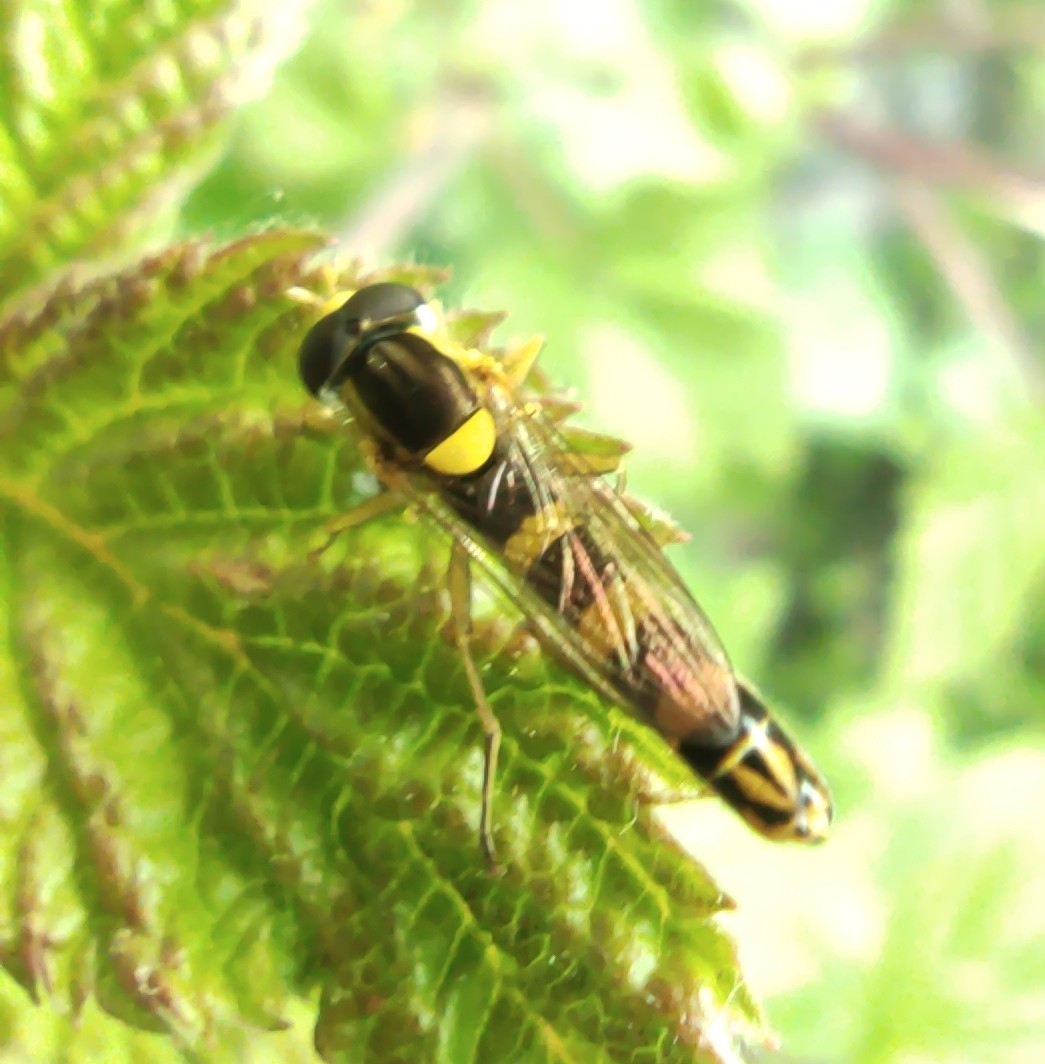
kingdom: Animalia
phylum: Arthropoda
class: Insecta
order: Diptera
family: Syrphidae
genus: Sphaerophoria
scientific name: Sphaerophoria scripta
